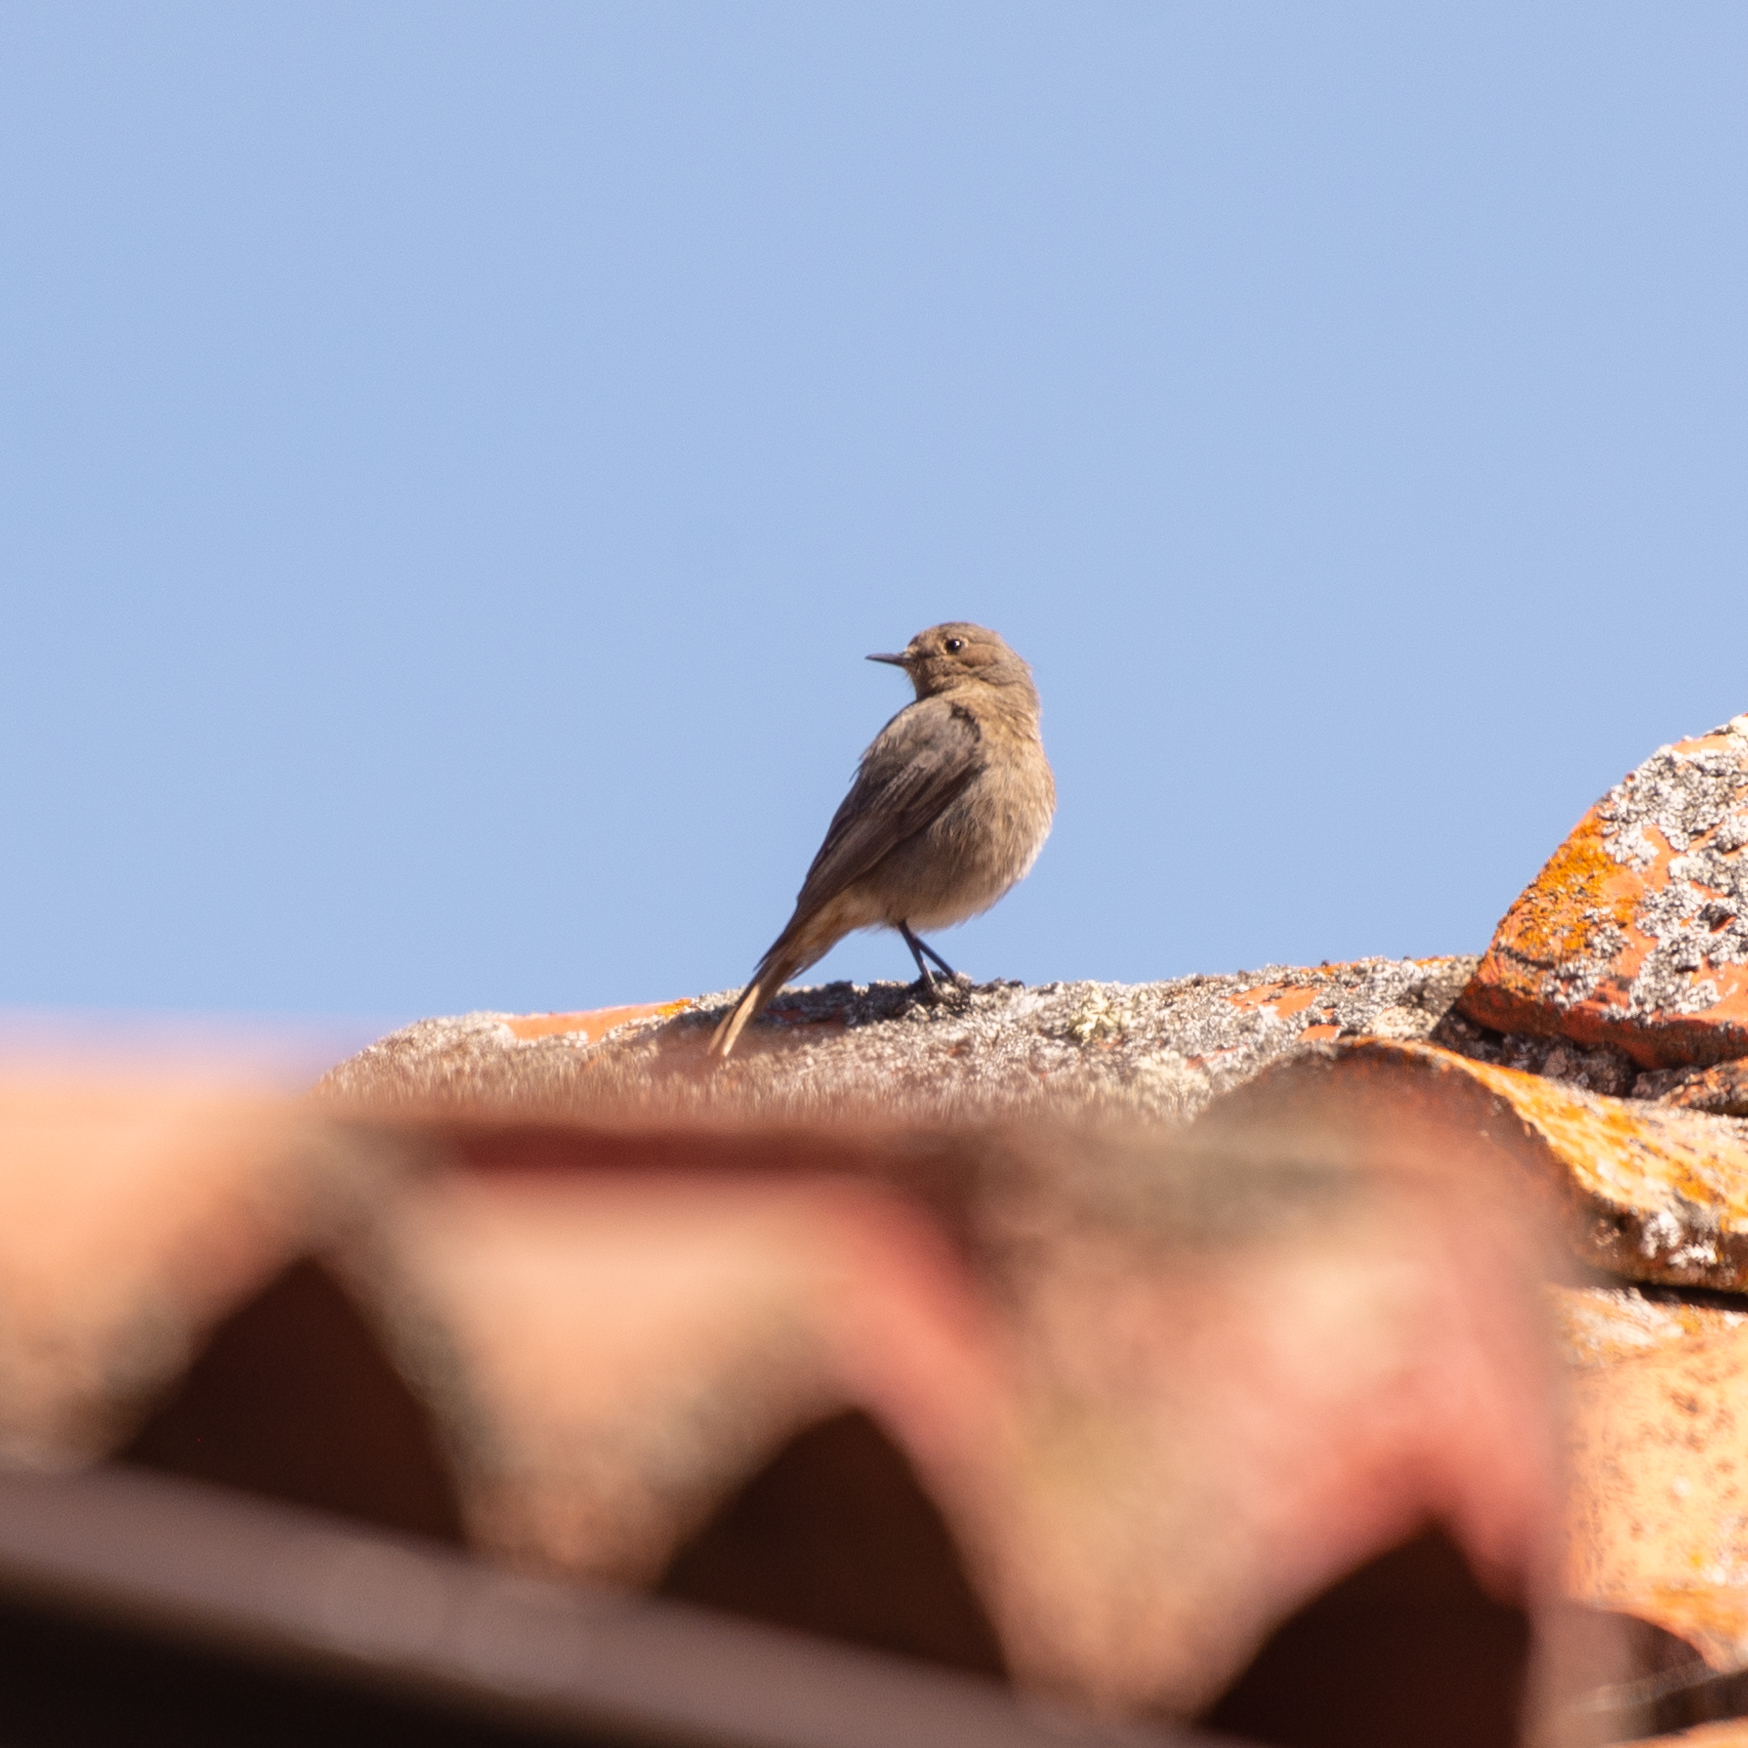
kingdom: Animalia
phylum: Chordata
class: Aves
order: Passeriformes
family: Muscicapidae
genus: Phoenicurus
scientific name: Phoenicurus ochruros
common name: Black redstart
